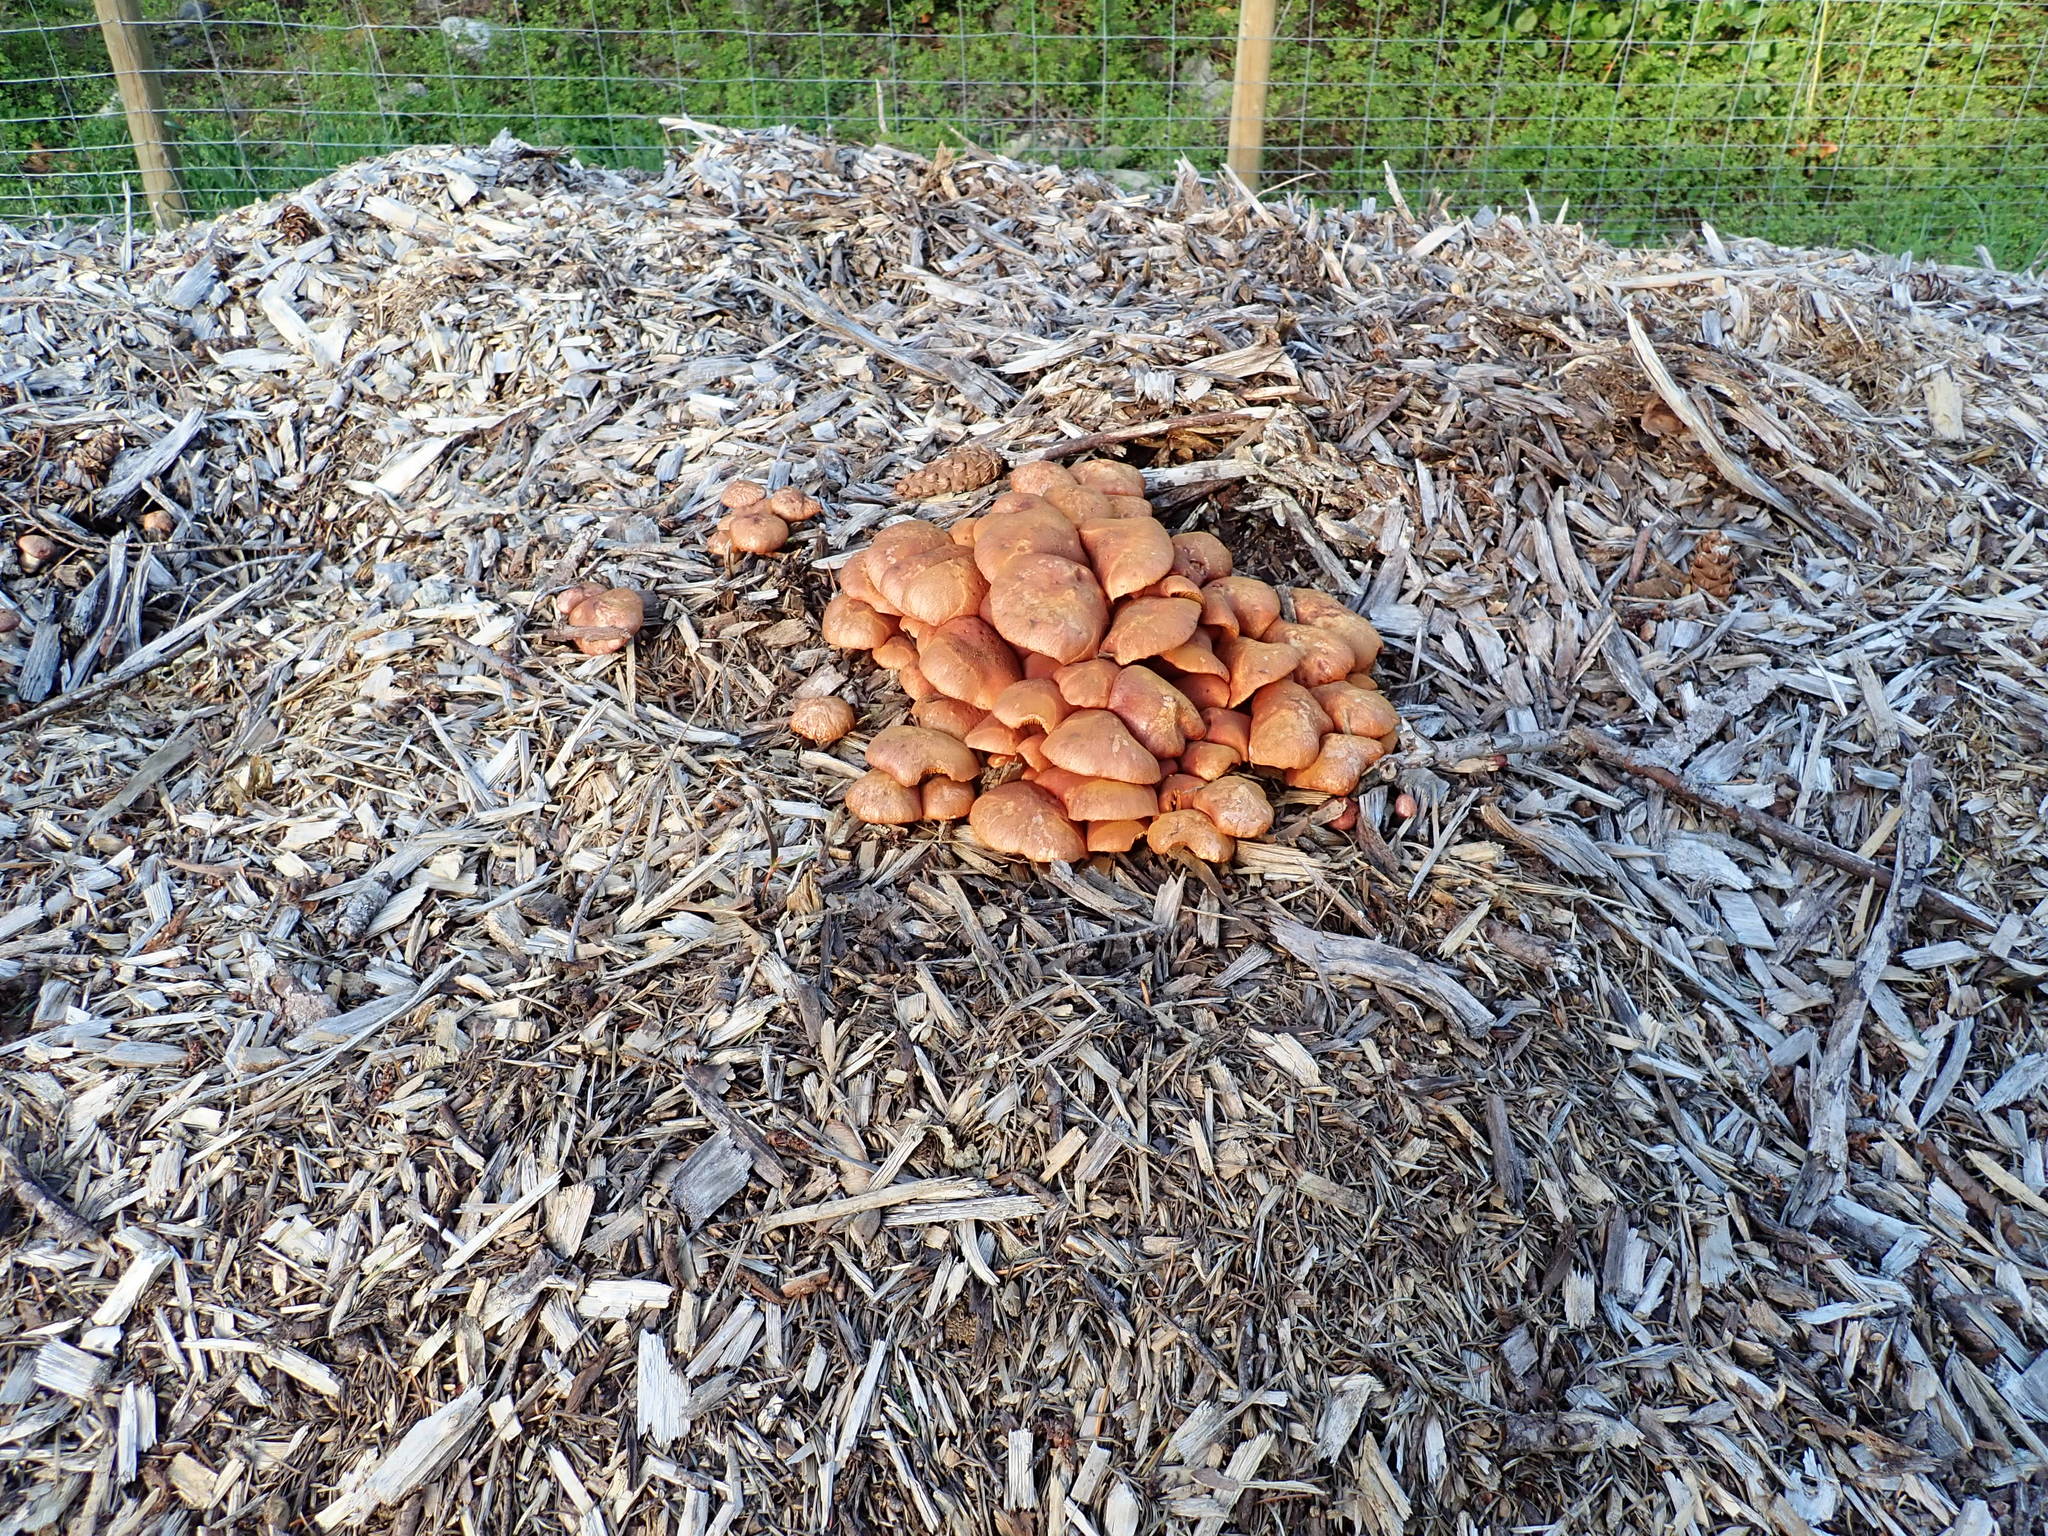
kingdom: Fungi
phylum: Basidiomycota
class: Agaricomycetes
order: Agaricales
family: Hymenogastraceae
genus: Gymnopilus
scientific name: Gymnopilus luteofolius
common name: Yellow-gilled gymnopilus
